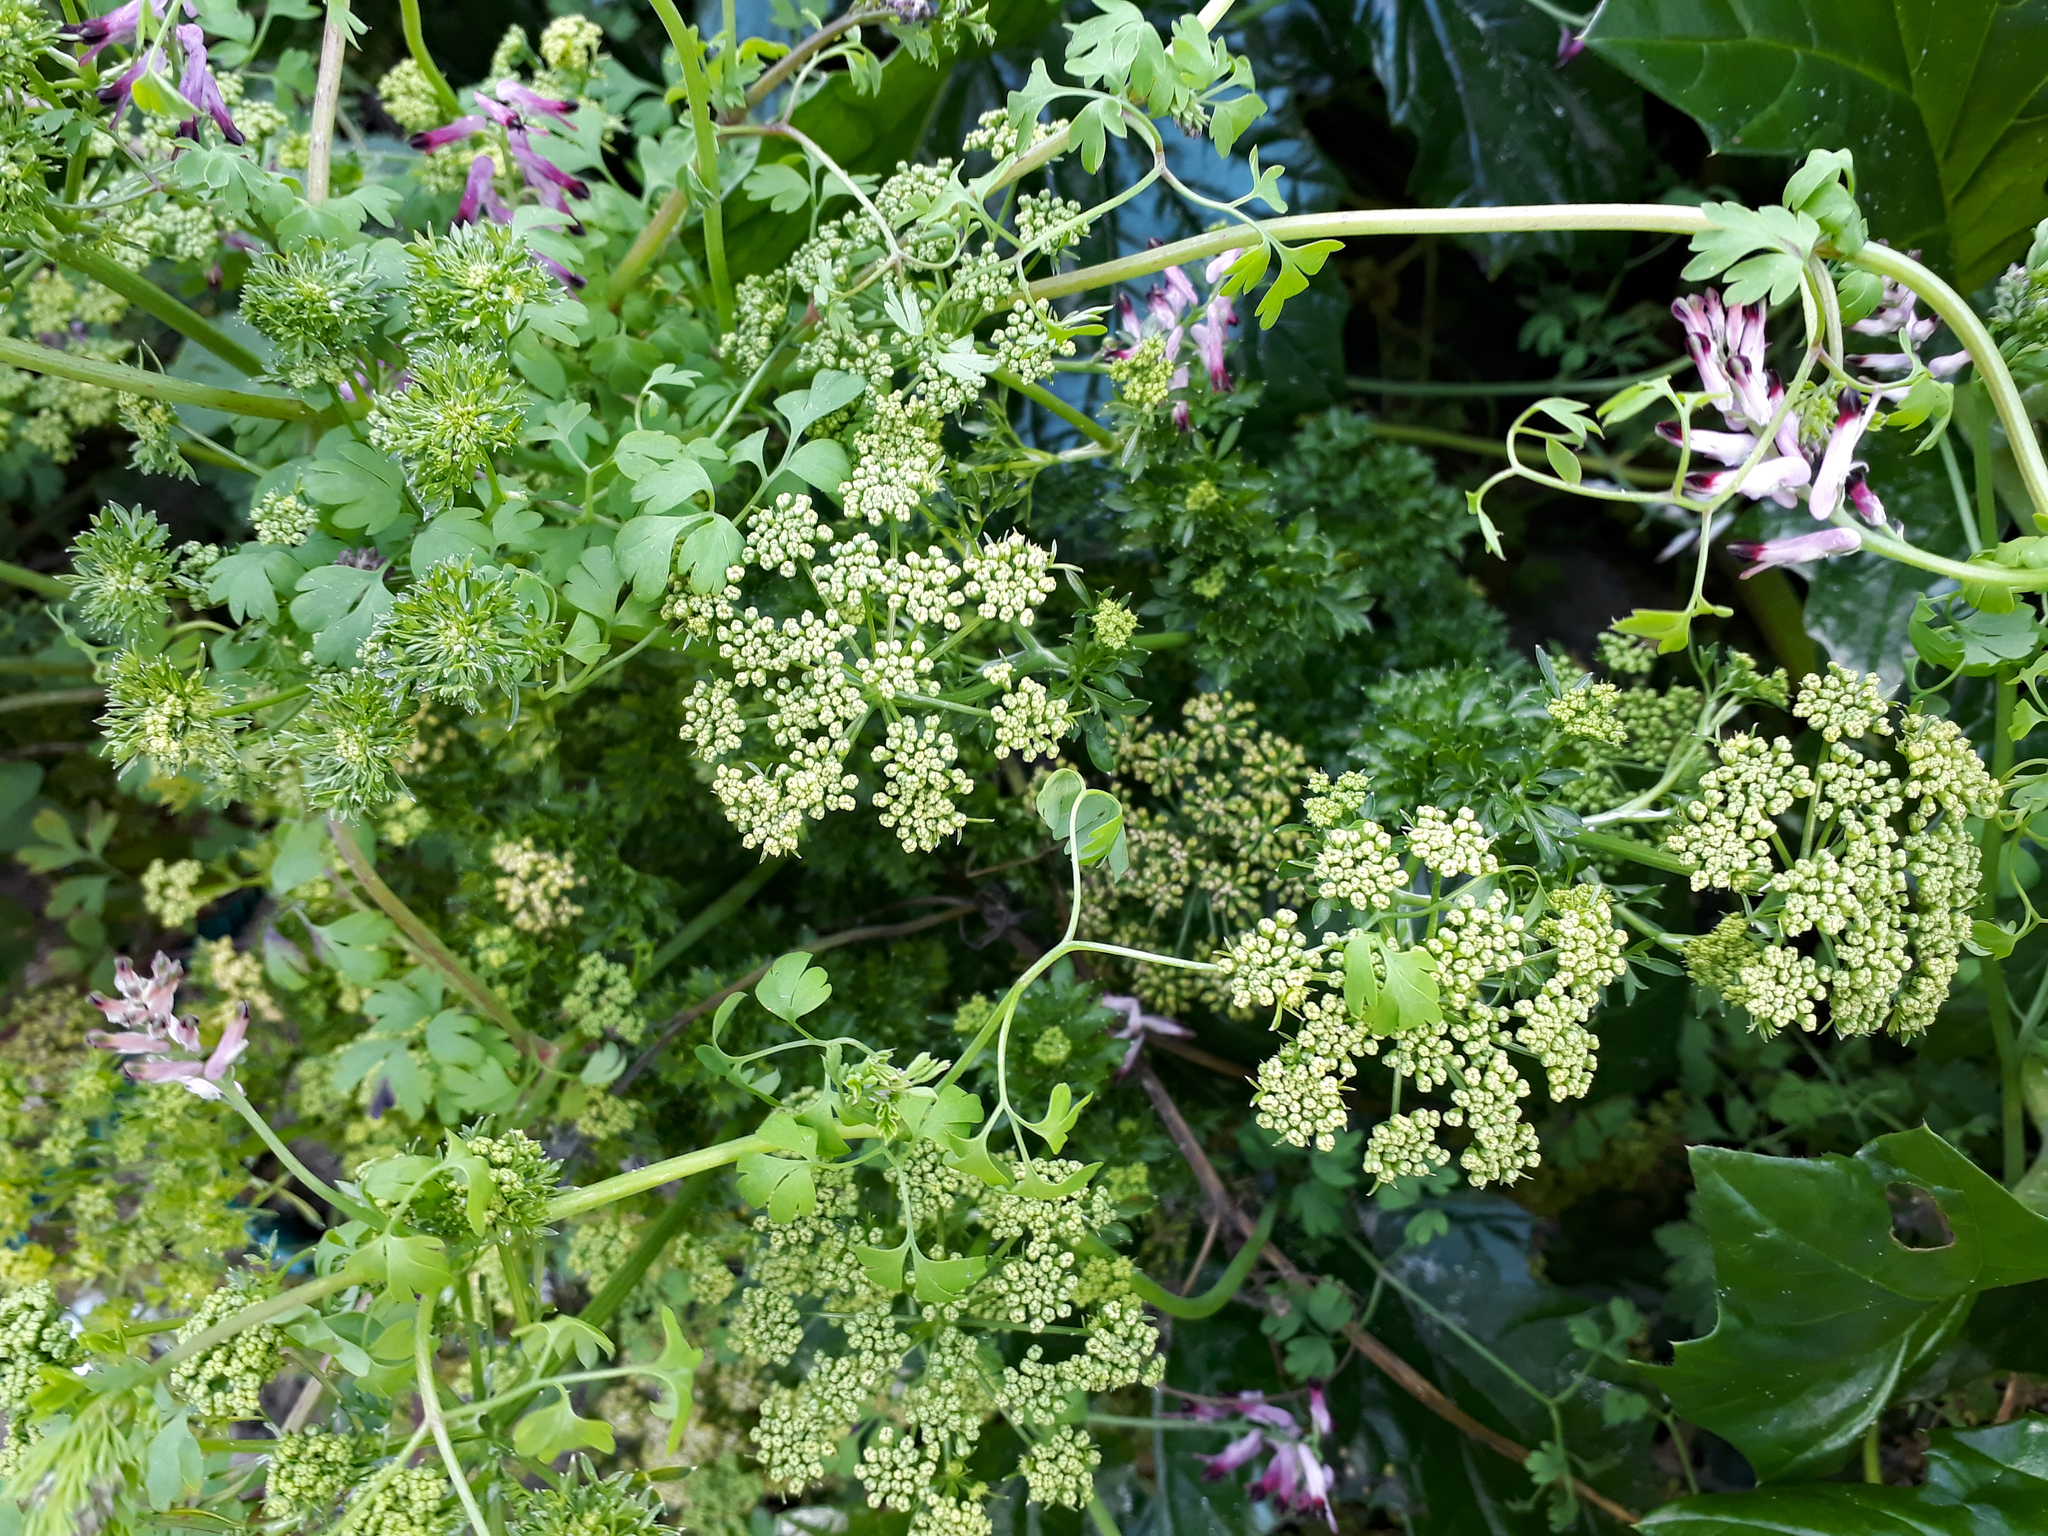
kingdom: Plantae
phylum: Tracheophyta
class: Magnoliopsida
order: Apiales
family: Apiaceae
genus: Petroselinum
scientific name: Petroselinum crispum
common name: Parsley
